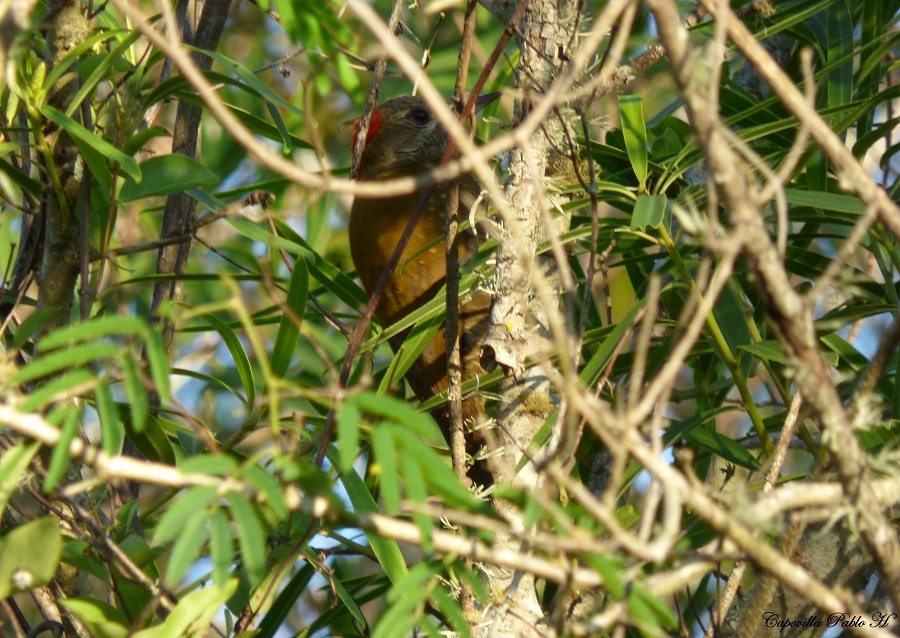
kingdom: Animalia
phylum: Chordata
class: Aves
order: Piciformes
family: Picidae
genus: Veniliornis
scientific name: Veniliornis passerinus
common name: Little woodpecker
